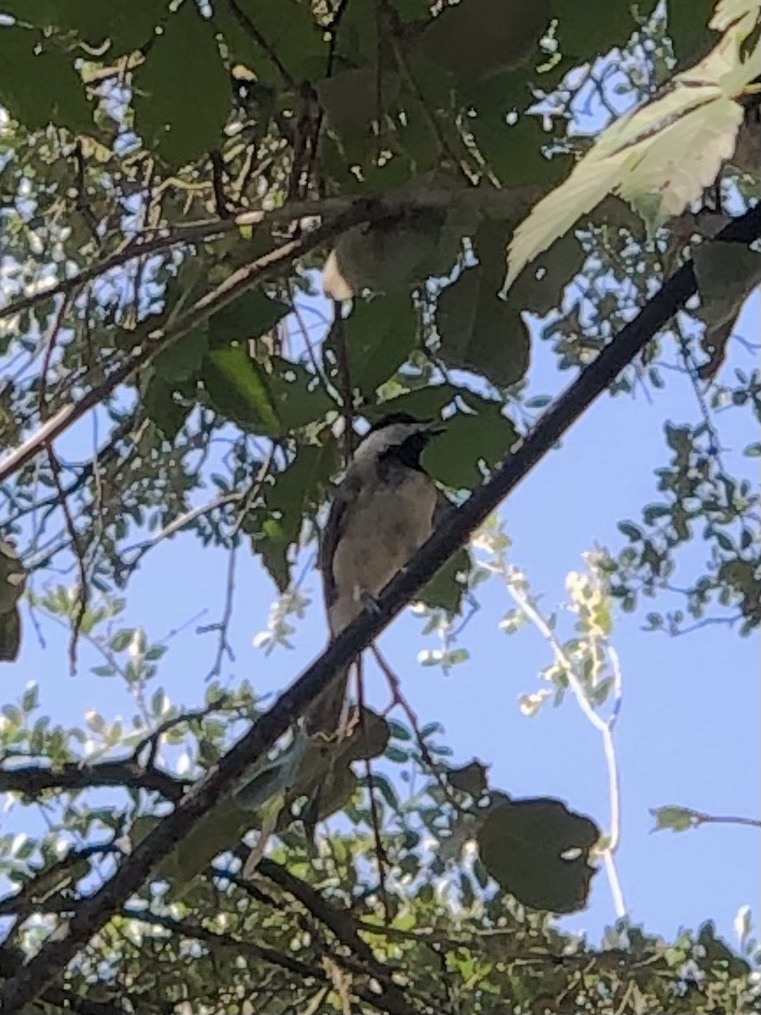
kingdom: Animalia
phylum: Chordata
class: Aves
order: Passeriformes
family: Paridae
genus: Poecile
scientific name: Poecile carolinensis
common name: Carolina chickadee
